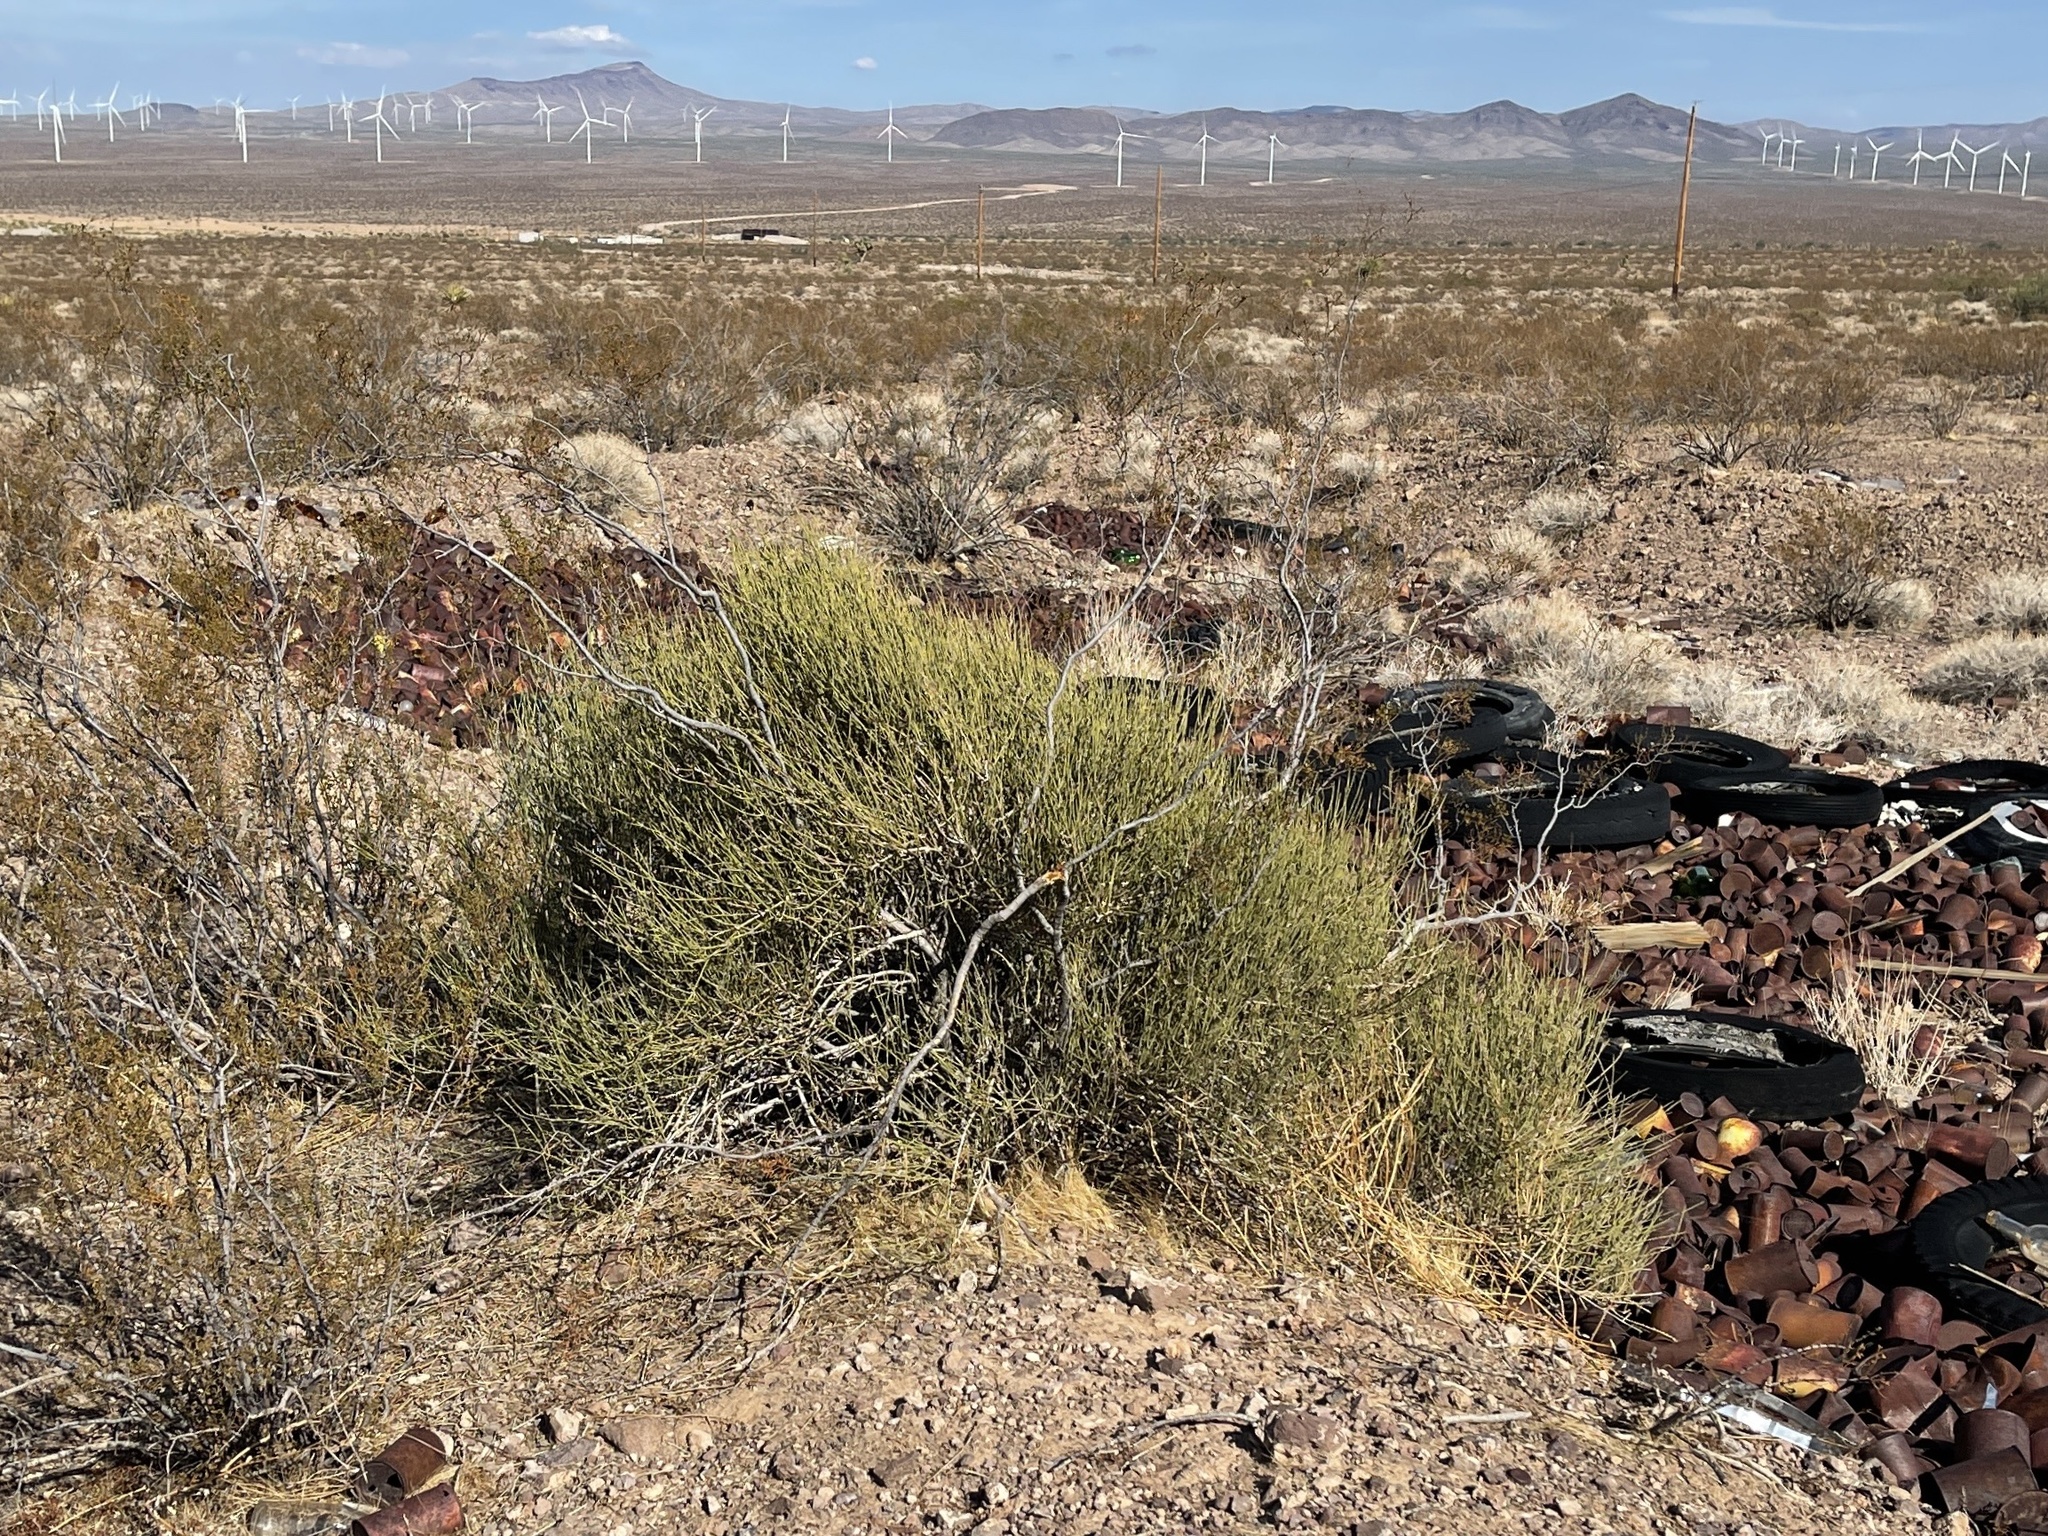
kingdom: Plantae
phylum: Tracheophyta
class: Gnetopsida
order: Ephedrales
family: Ephedraceae
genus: Ephedra
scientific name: Ephedra viridis
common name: Green ephedra
